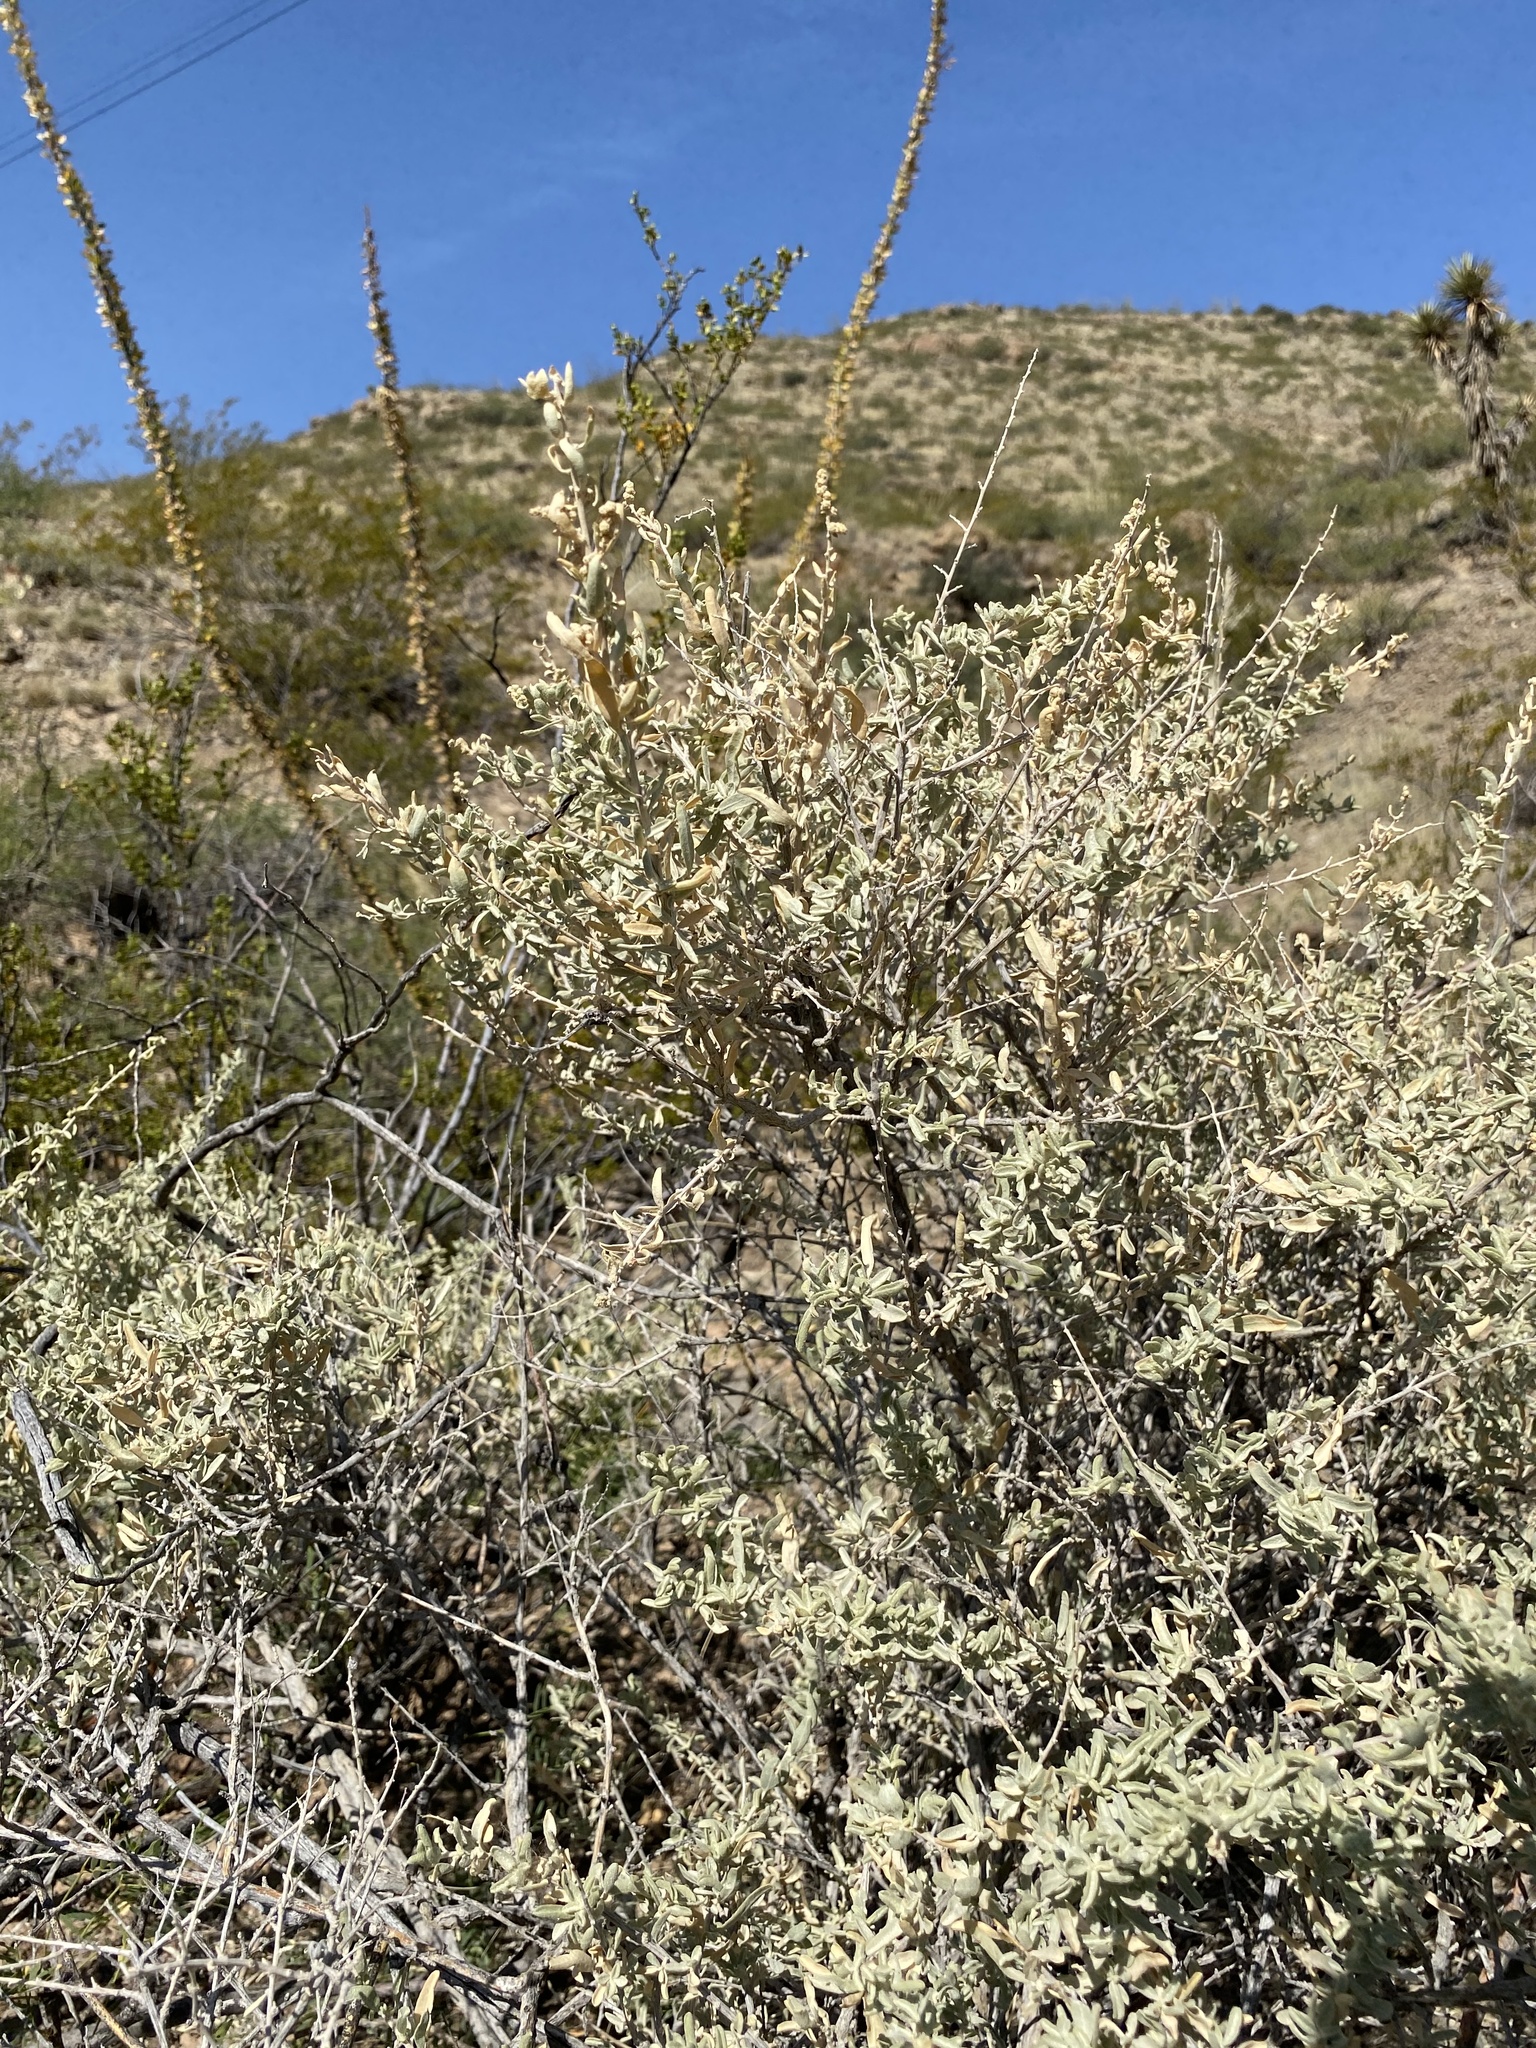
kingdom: Plantae
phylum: Tracheophyta
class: Magnoliopsida
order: Caryophyllales
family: Amaranthaceae
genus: Atriplex
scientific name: Atriplex canescens
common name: Four-wing saltbush
